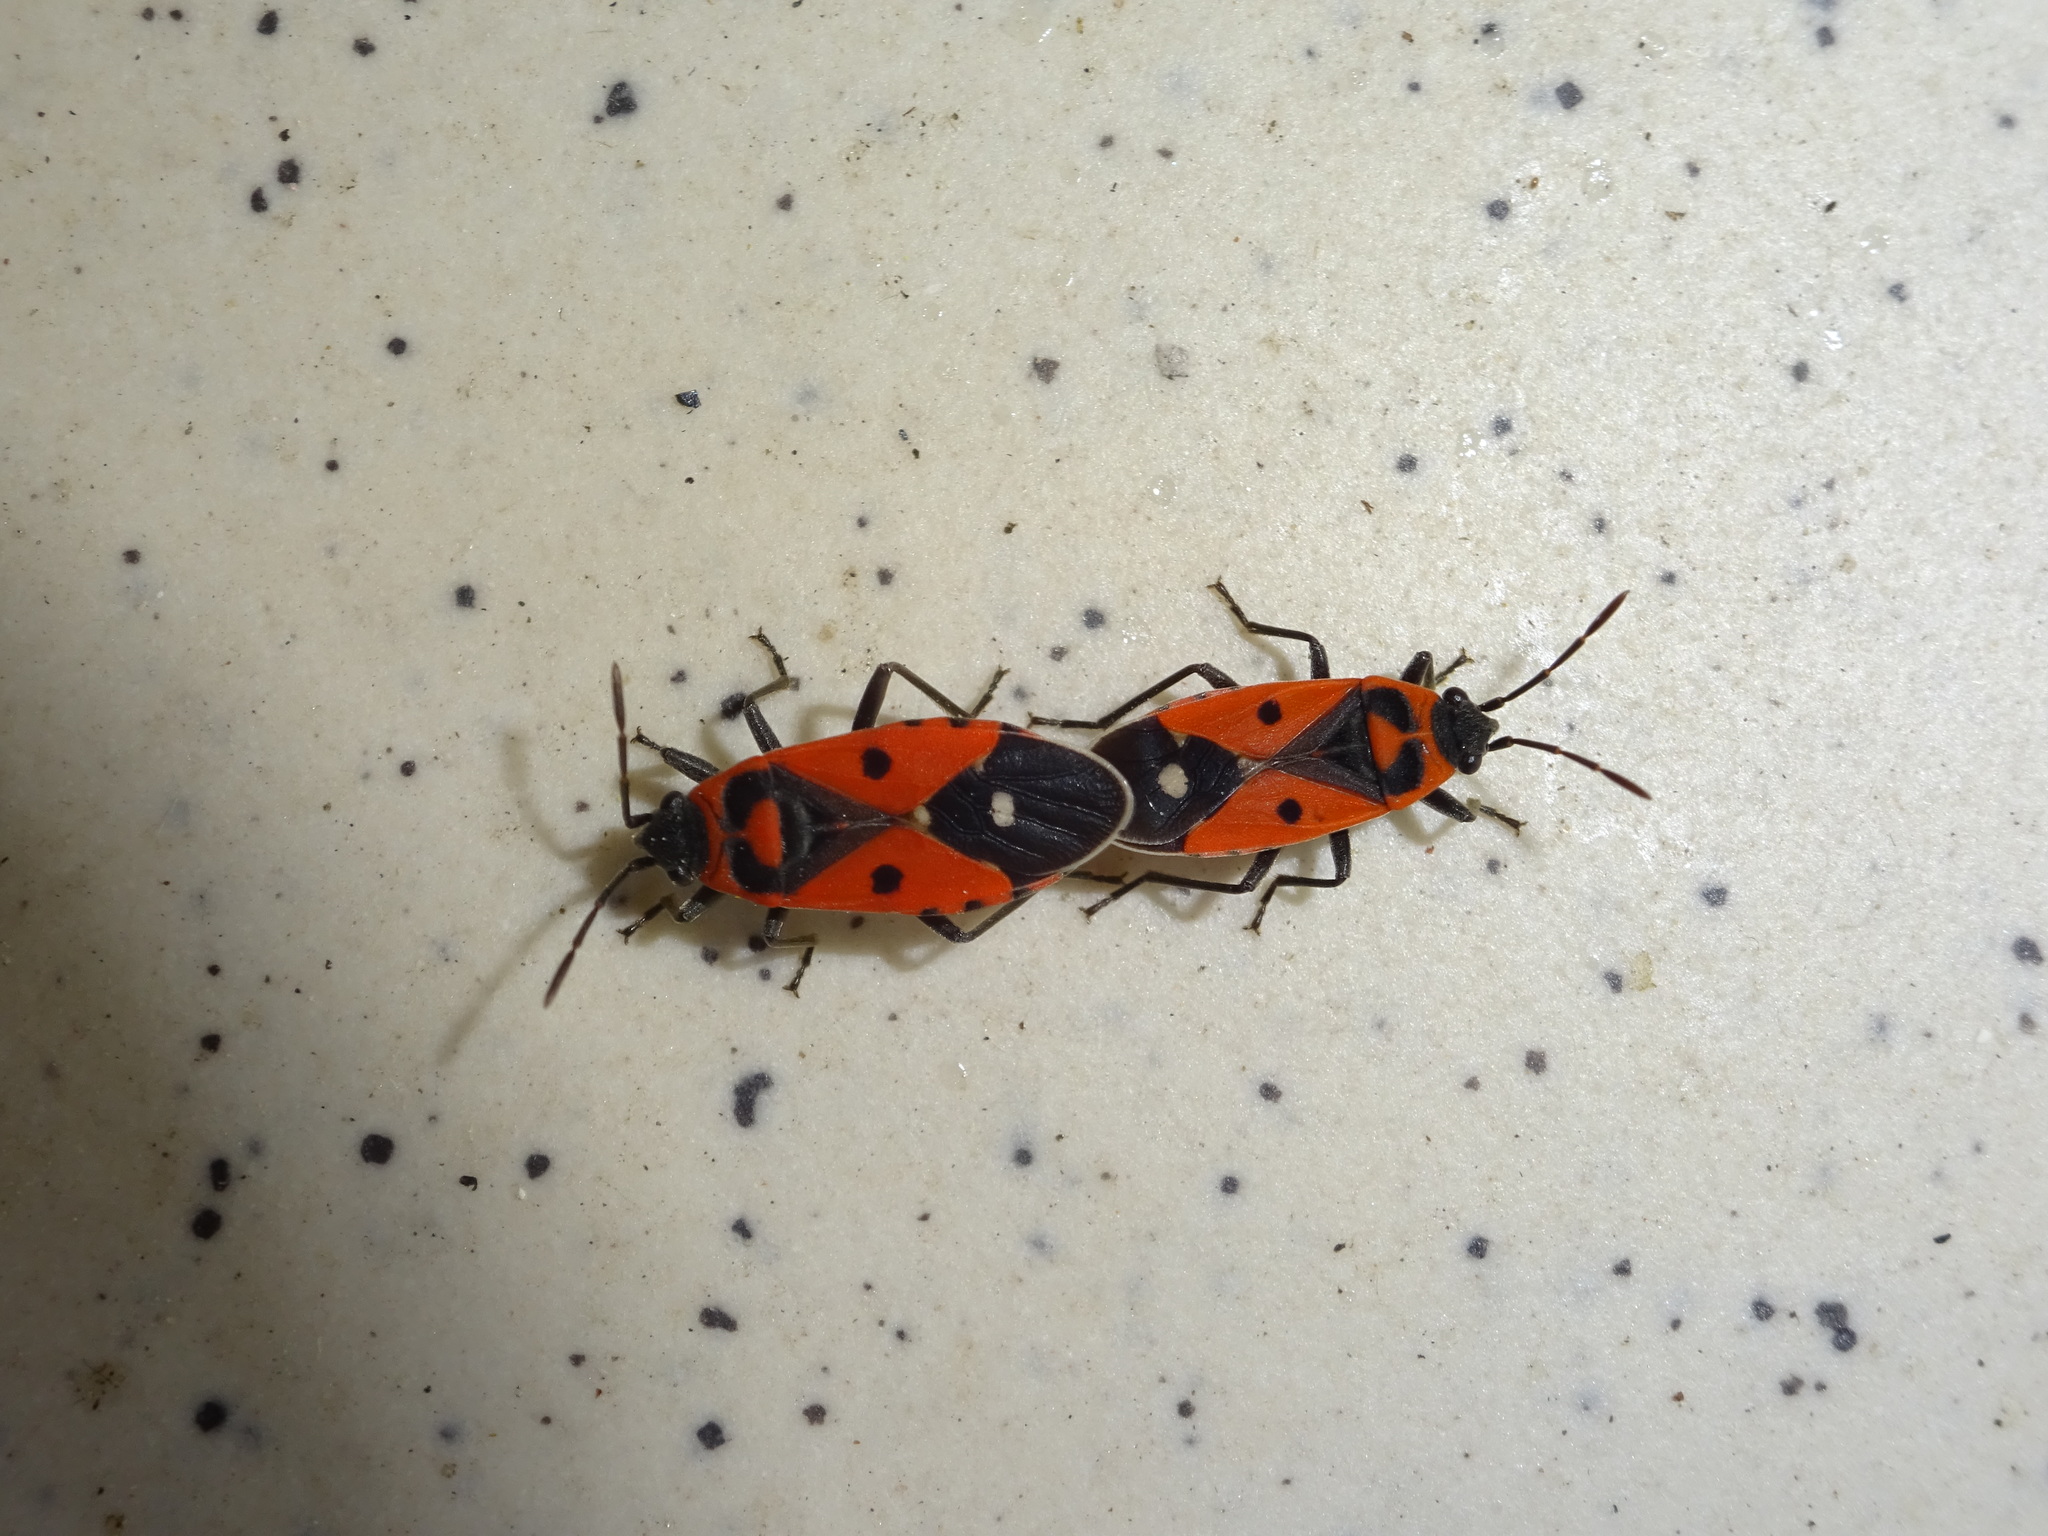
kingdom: Animalia
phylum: Arthropoda
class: Insecta
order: Hemiptera
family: Lygaeidae
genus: Melanocoryphus
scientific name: Melanocoryphus albomaculatus
